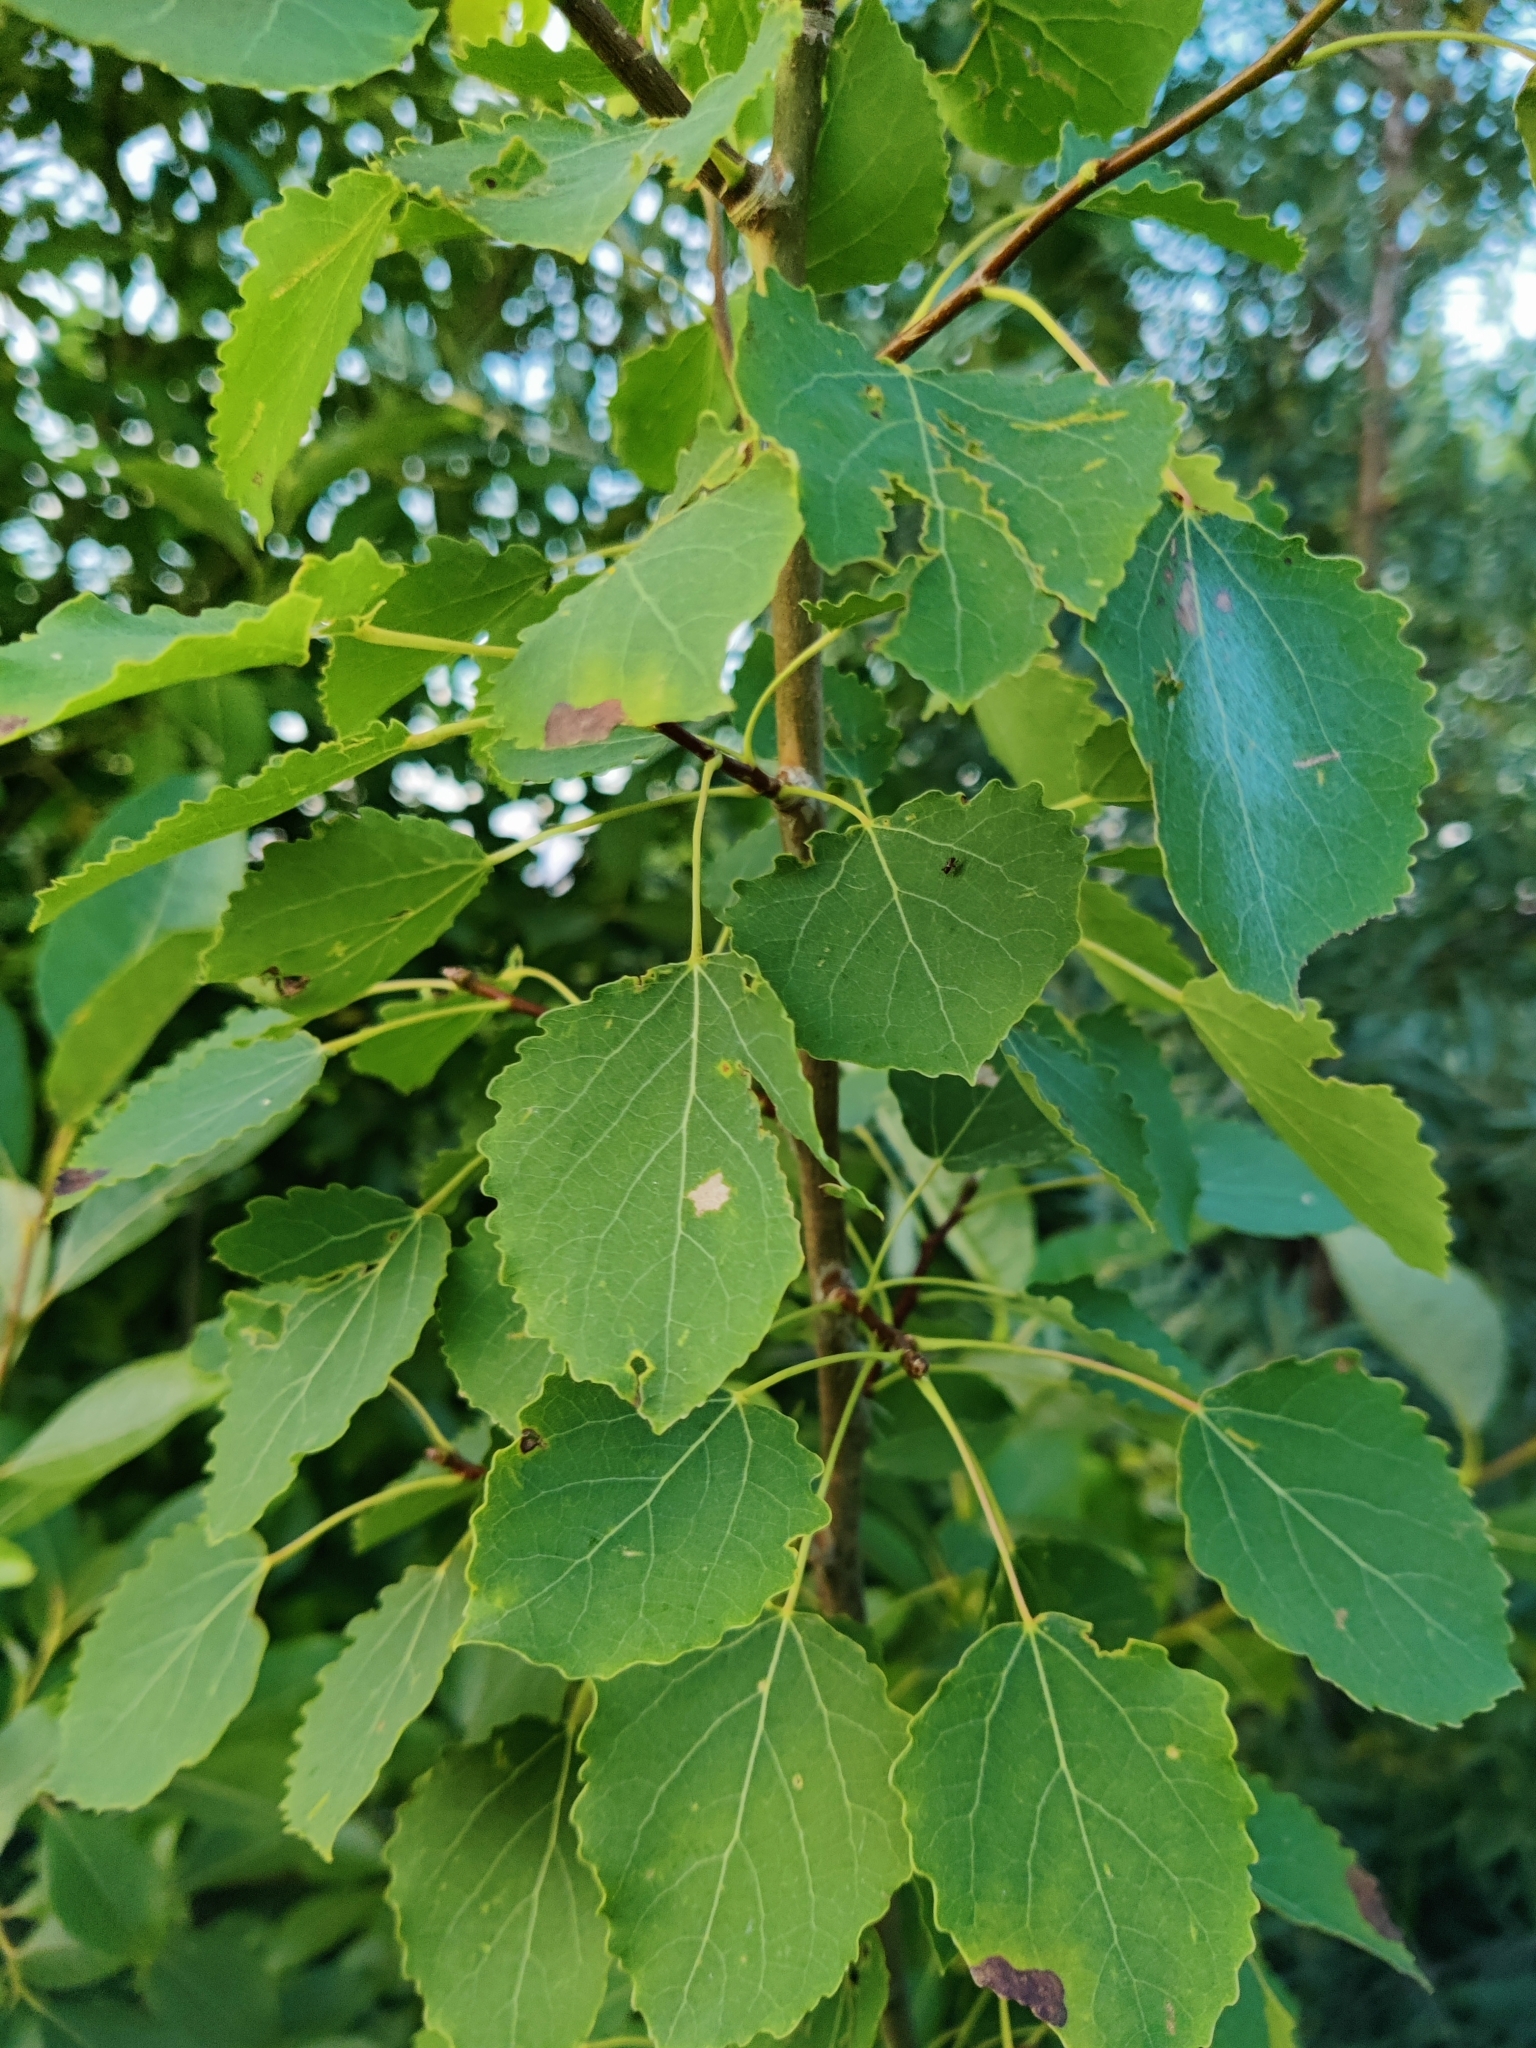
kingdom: Plantae
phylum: Tracheophyta
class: Magnoliopsida
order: Malpighiales
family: Salicaceae
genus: Populus
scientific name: Populus tremula
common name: European aspen
